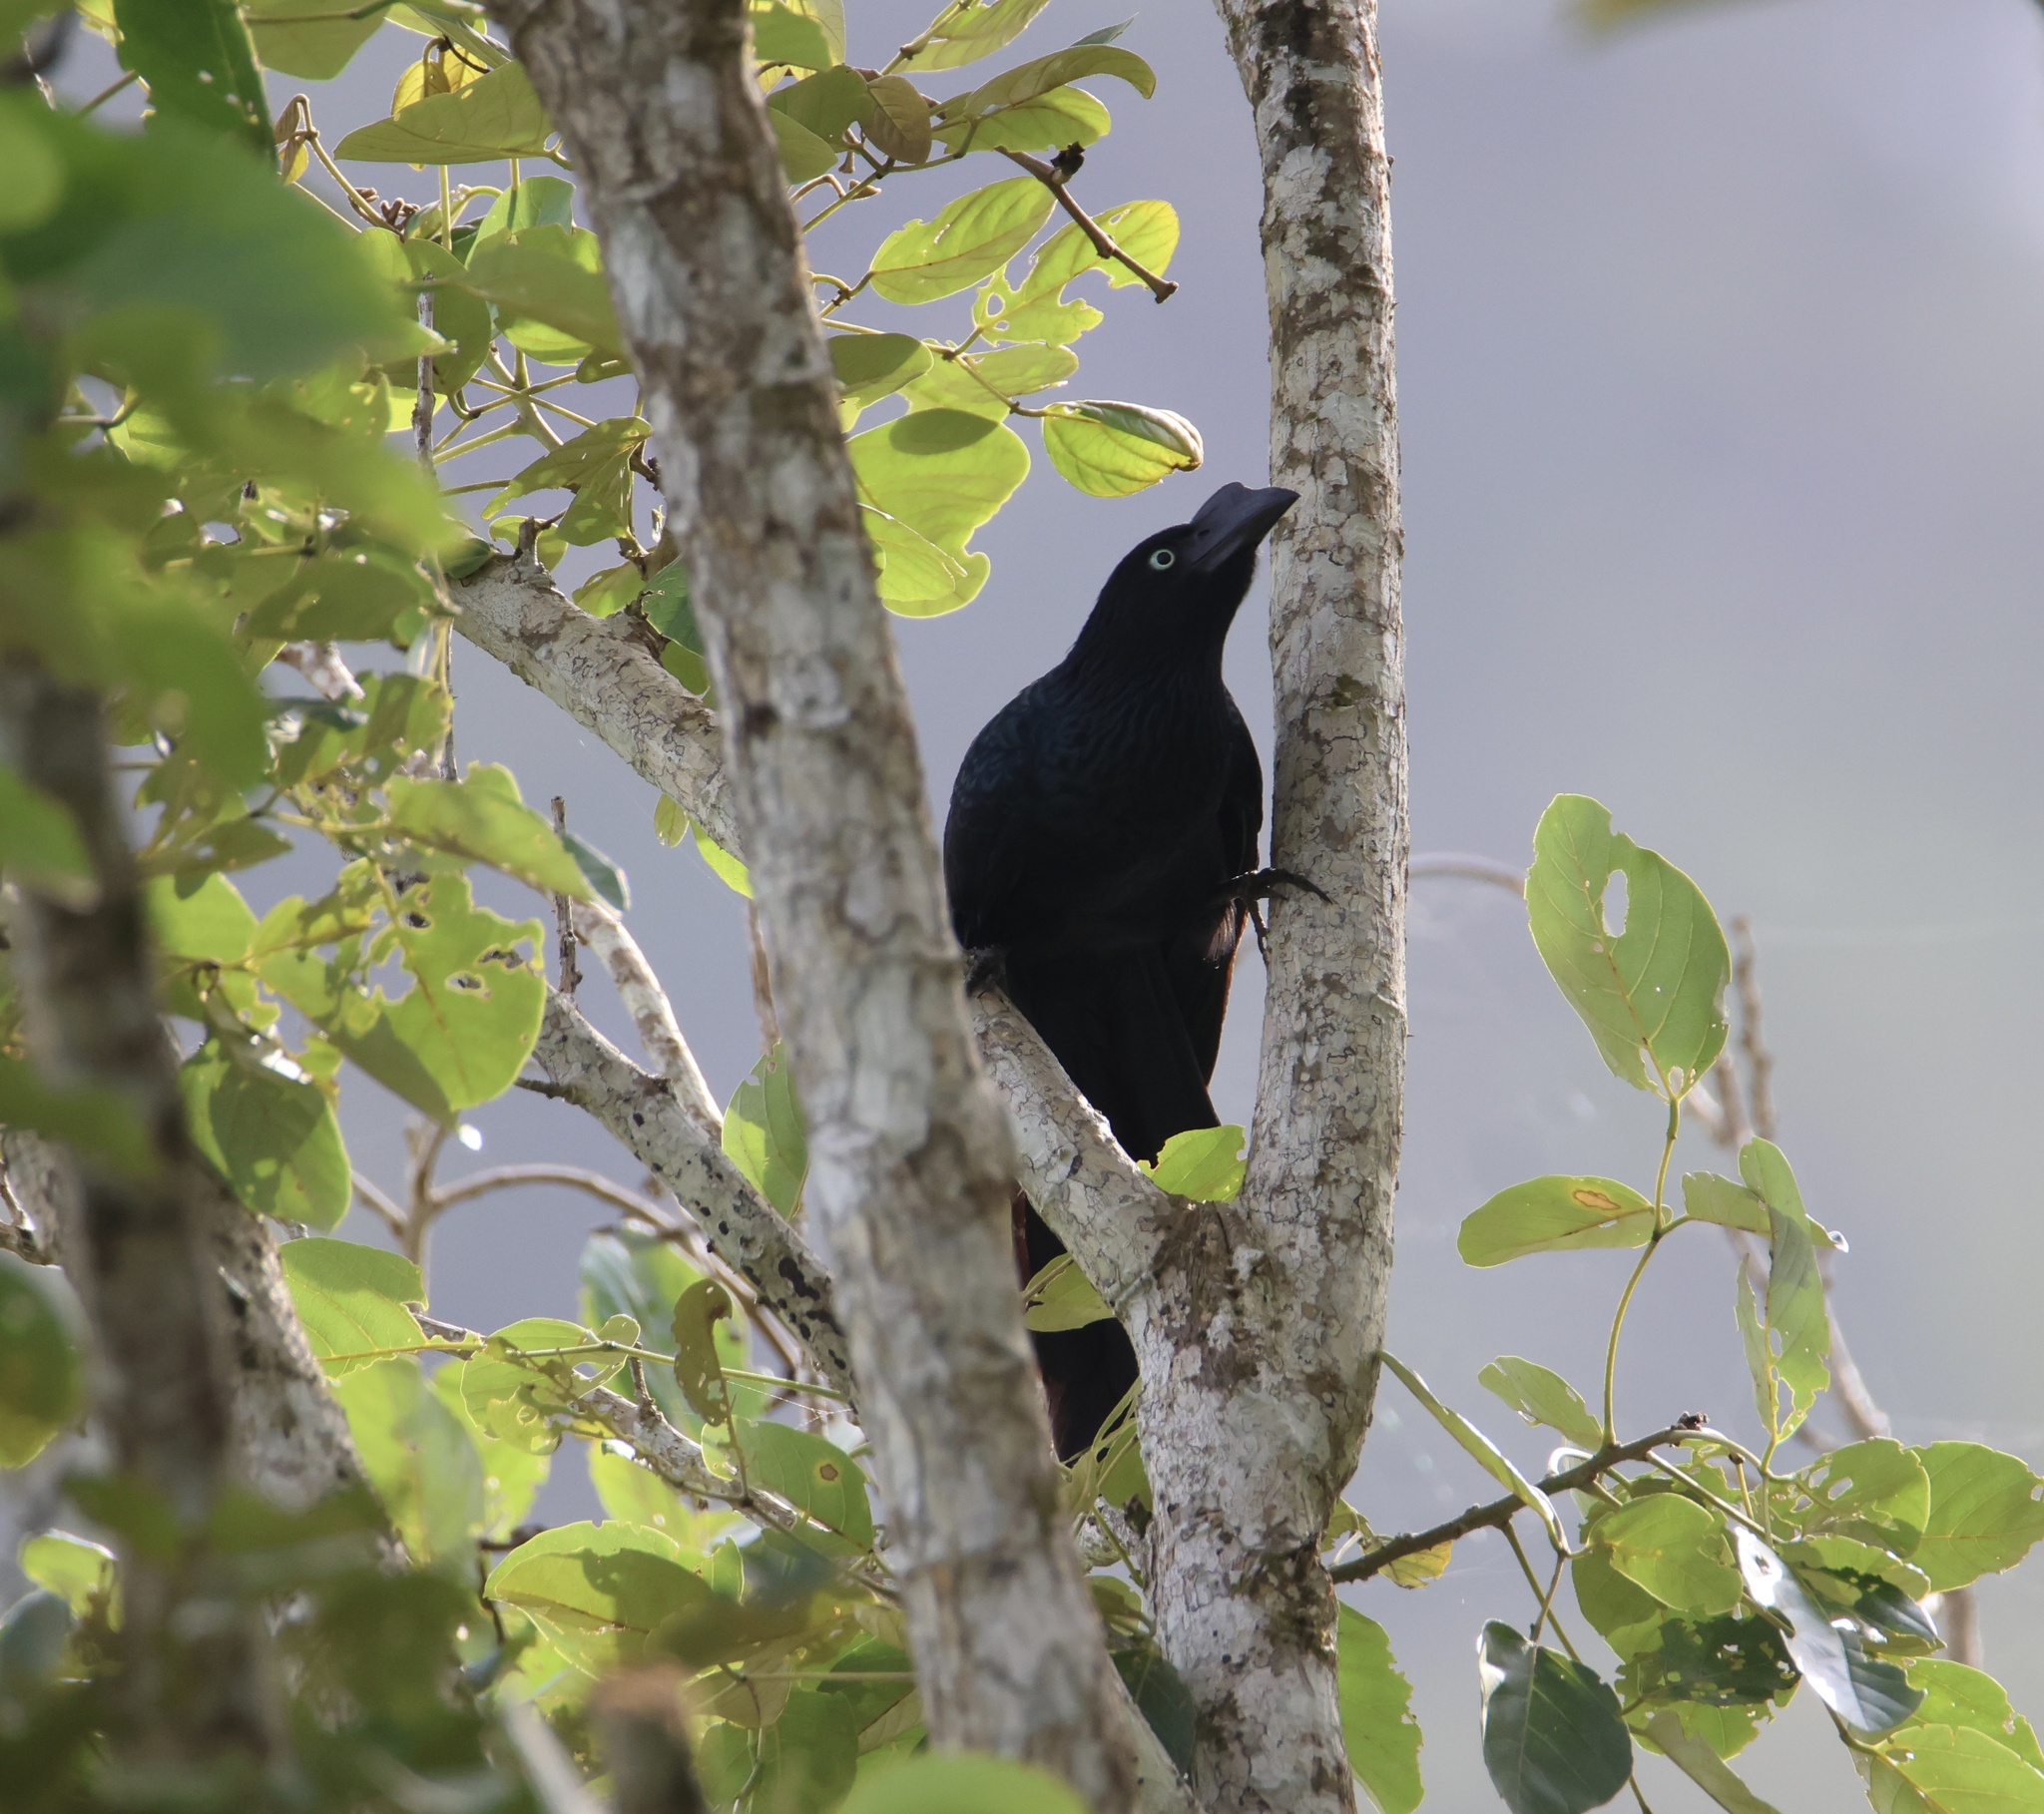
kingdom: Animalia
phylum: Chordata
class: Aves
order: Cuculiformes
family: Cuculidae
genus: Crotophaga
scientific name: Crotophaga major
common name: Greater ani
